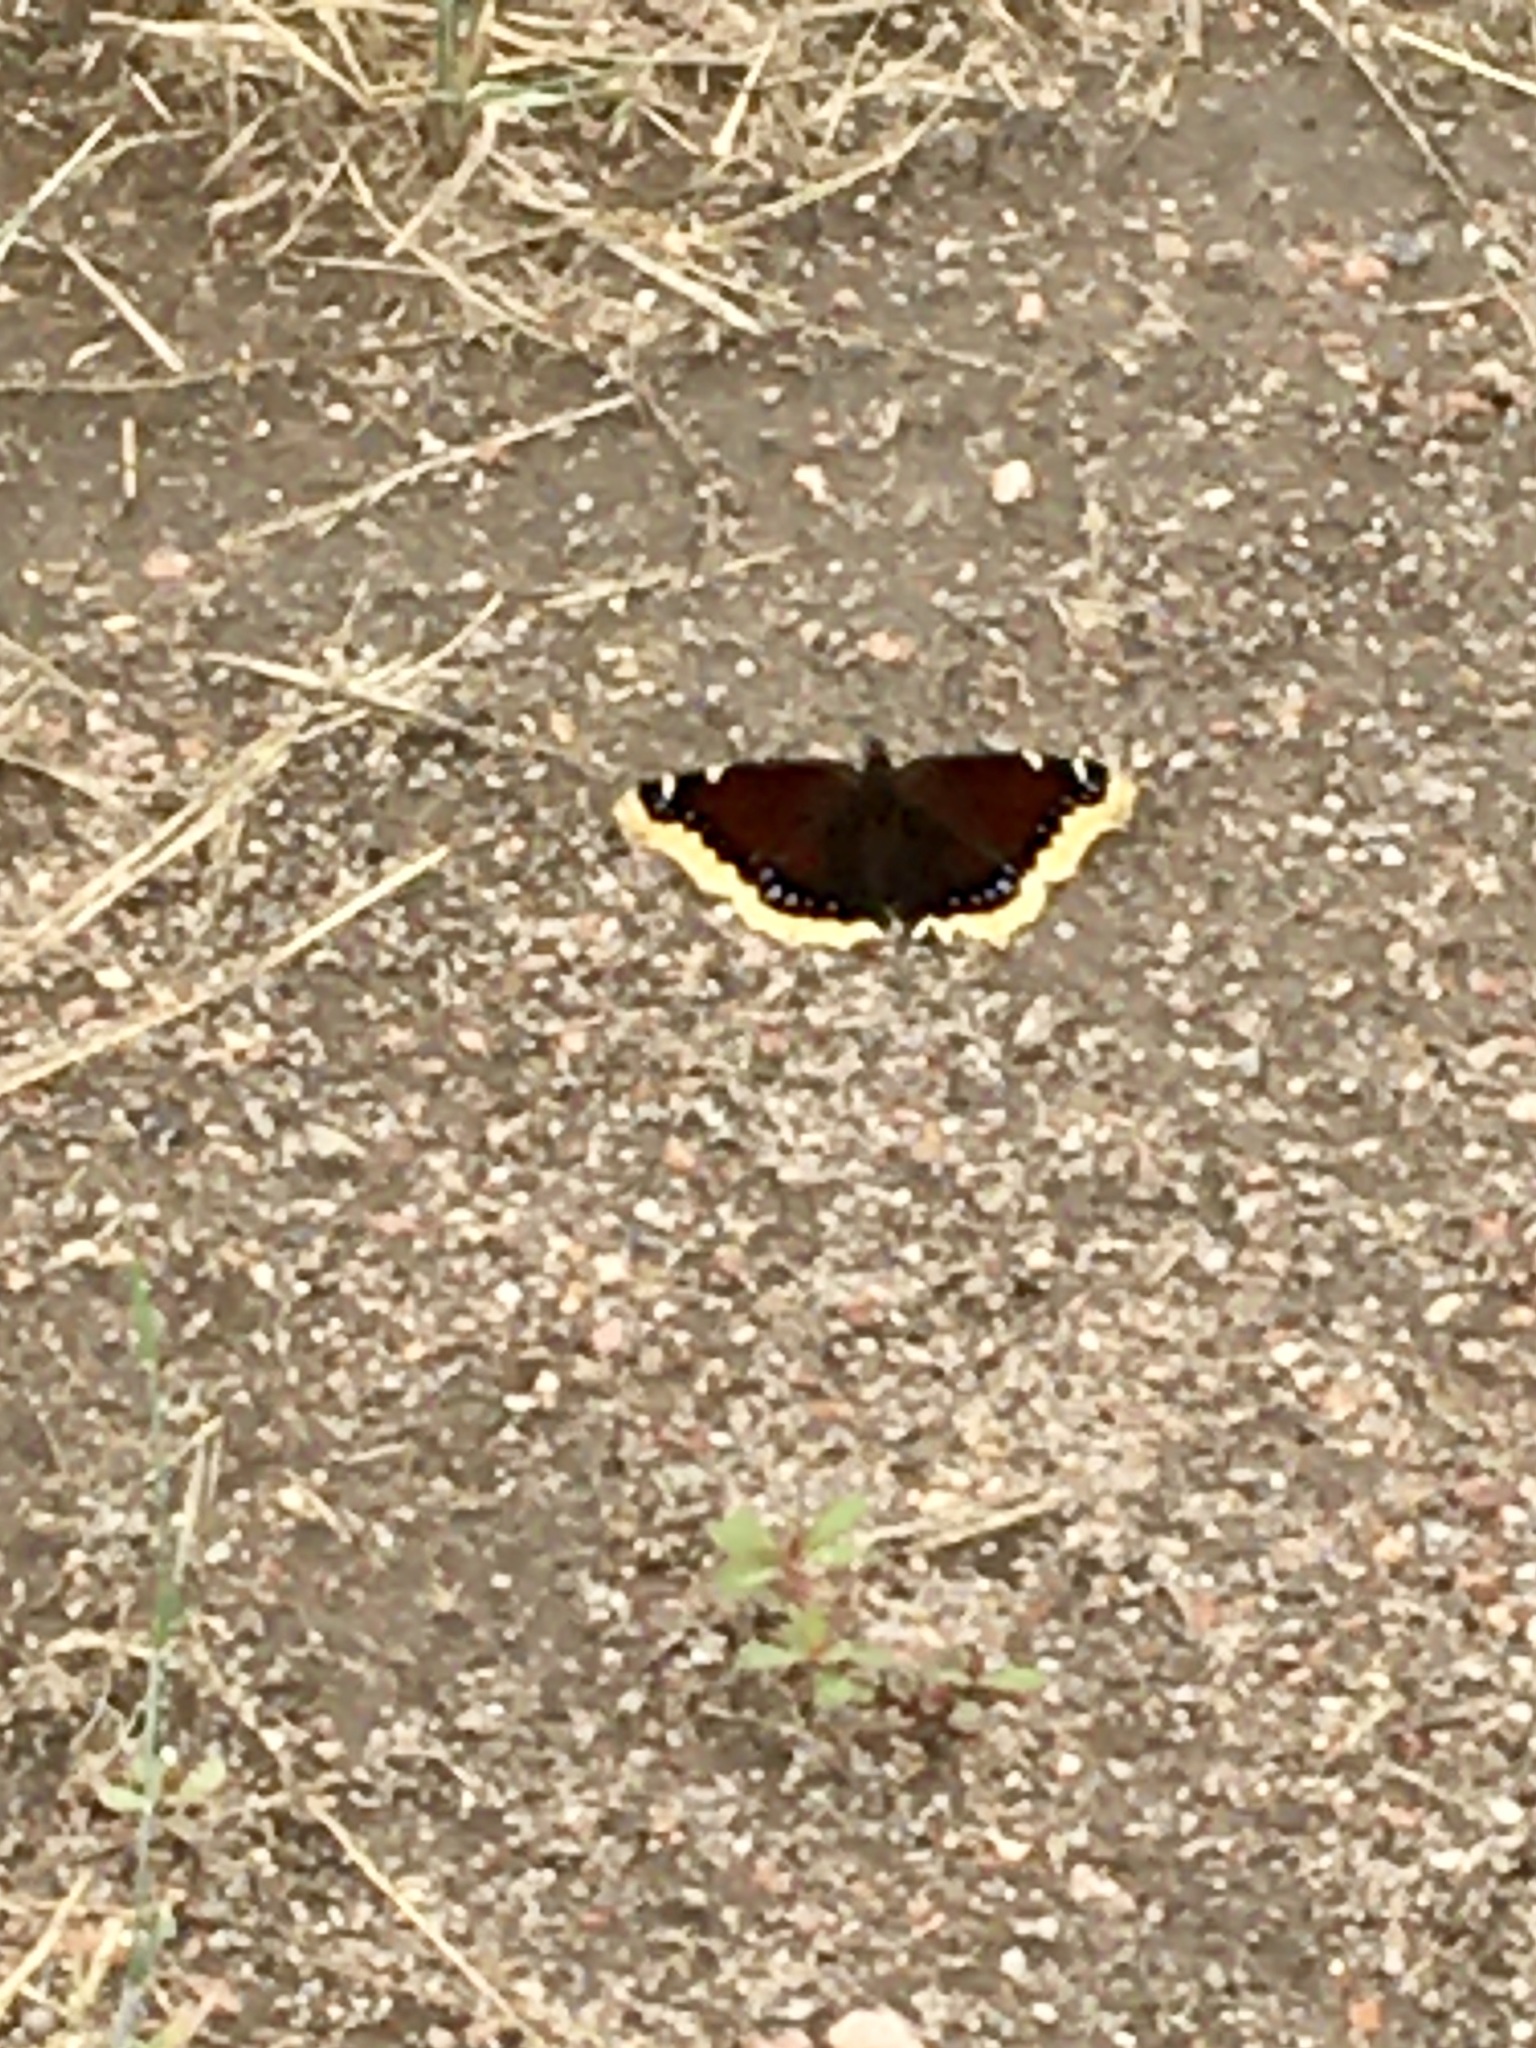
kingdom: Animalia
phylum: Arthropoda
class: Insecta
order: Lepidoptera
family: Nymphalidae
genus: Nymphalis
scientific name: Nymphalis antiopa
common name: Camberwell beauty
